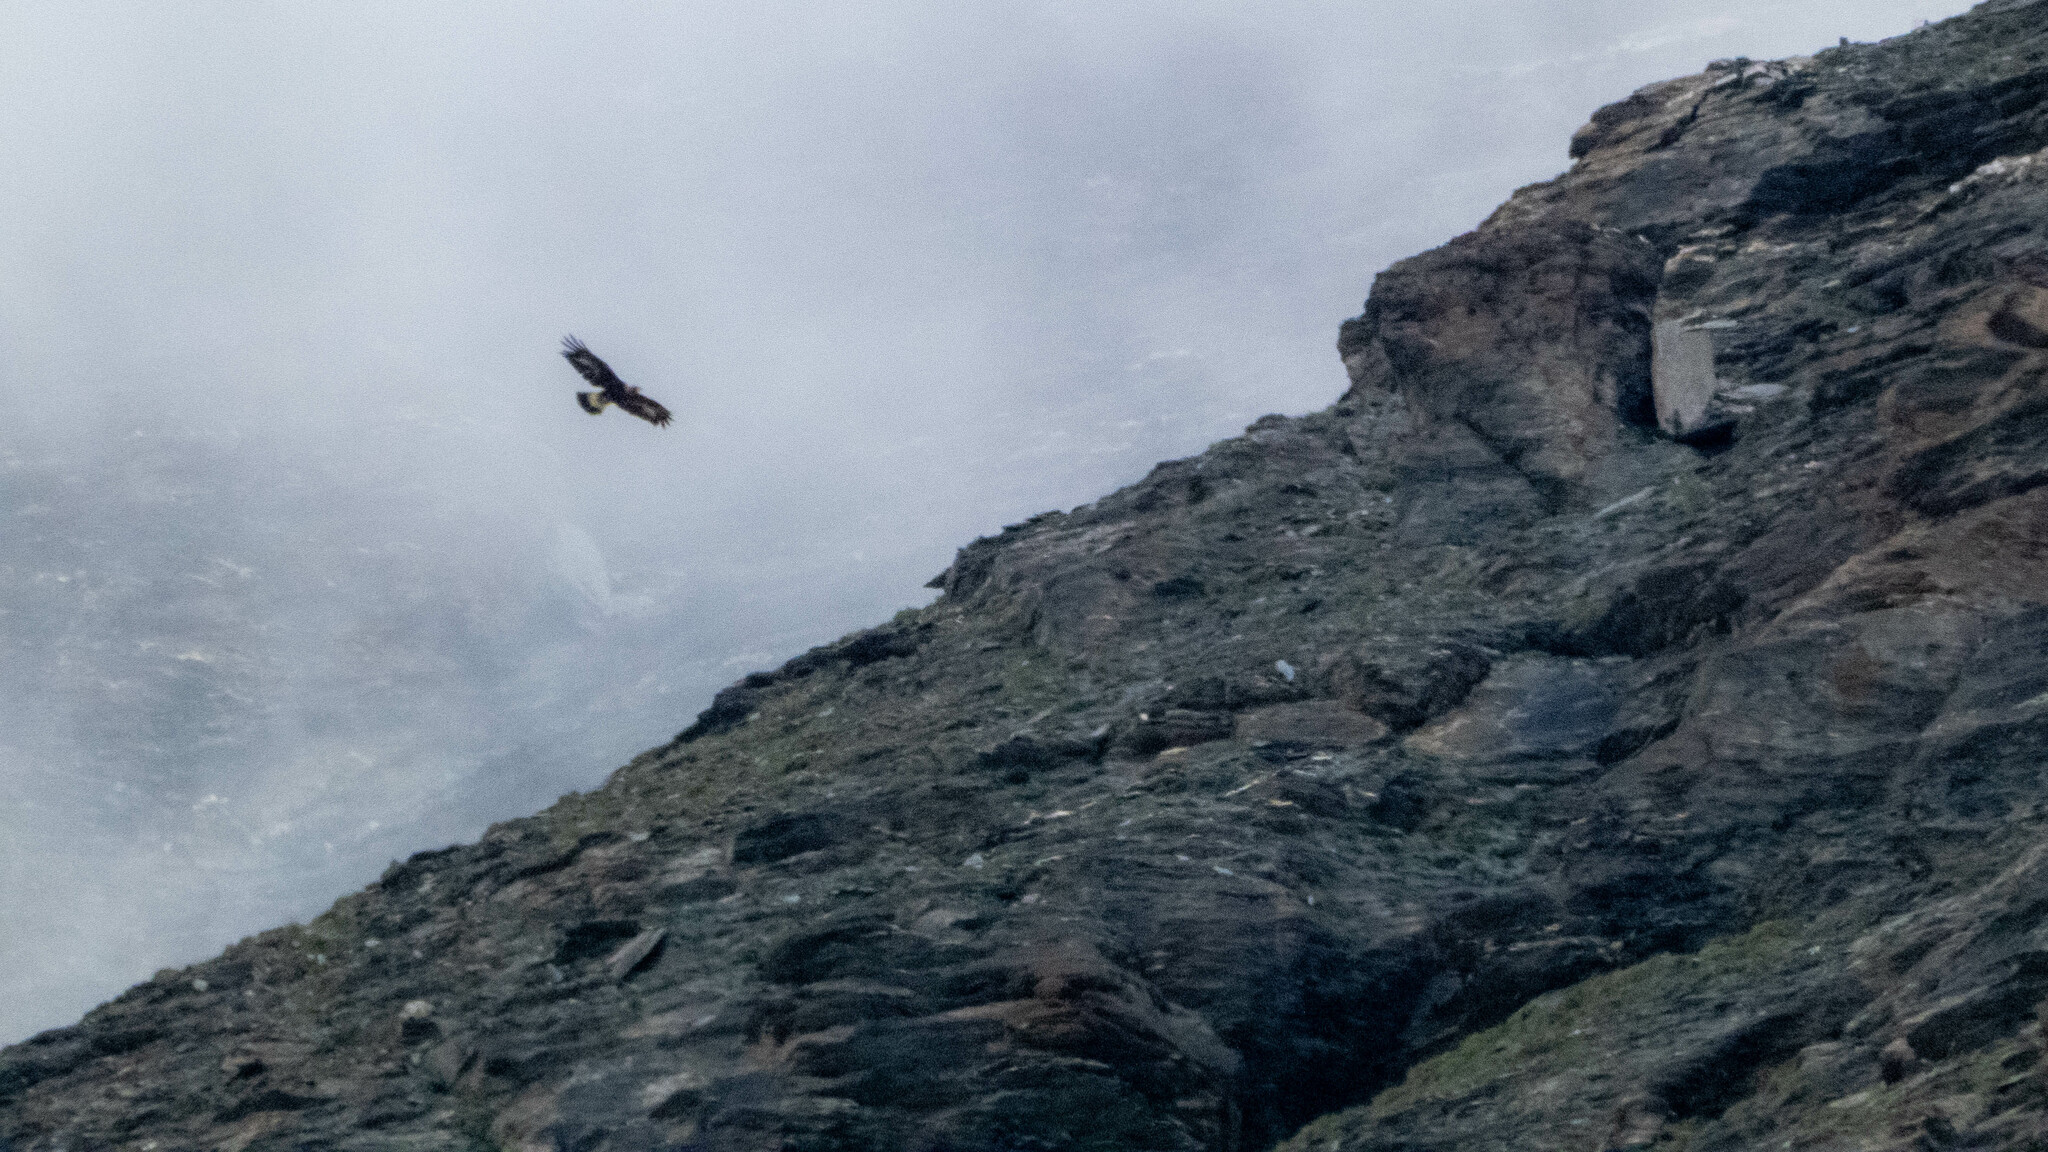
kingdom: Animalia
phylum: Chordata
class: Aves
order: Accipitriformes
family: Accipitridae
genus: Aquila
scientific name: Aquila chrysaetos
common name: Golden eagle
